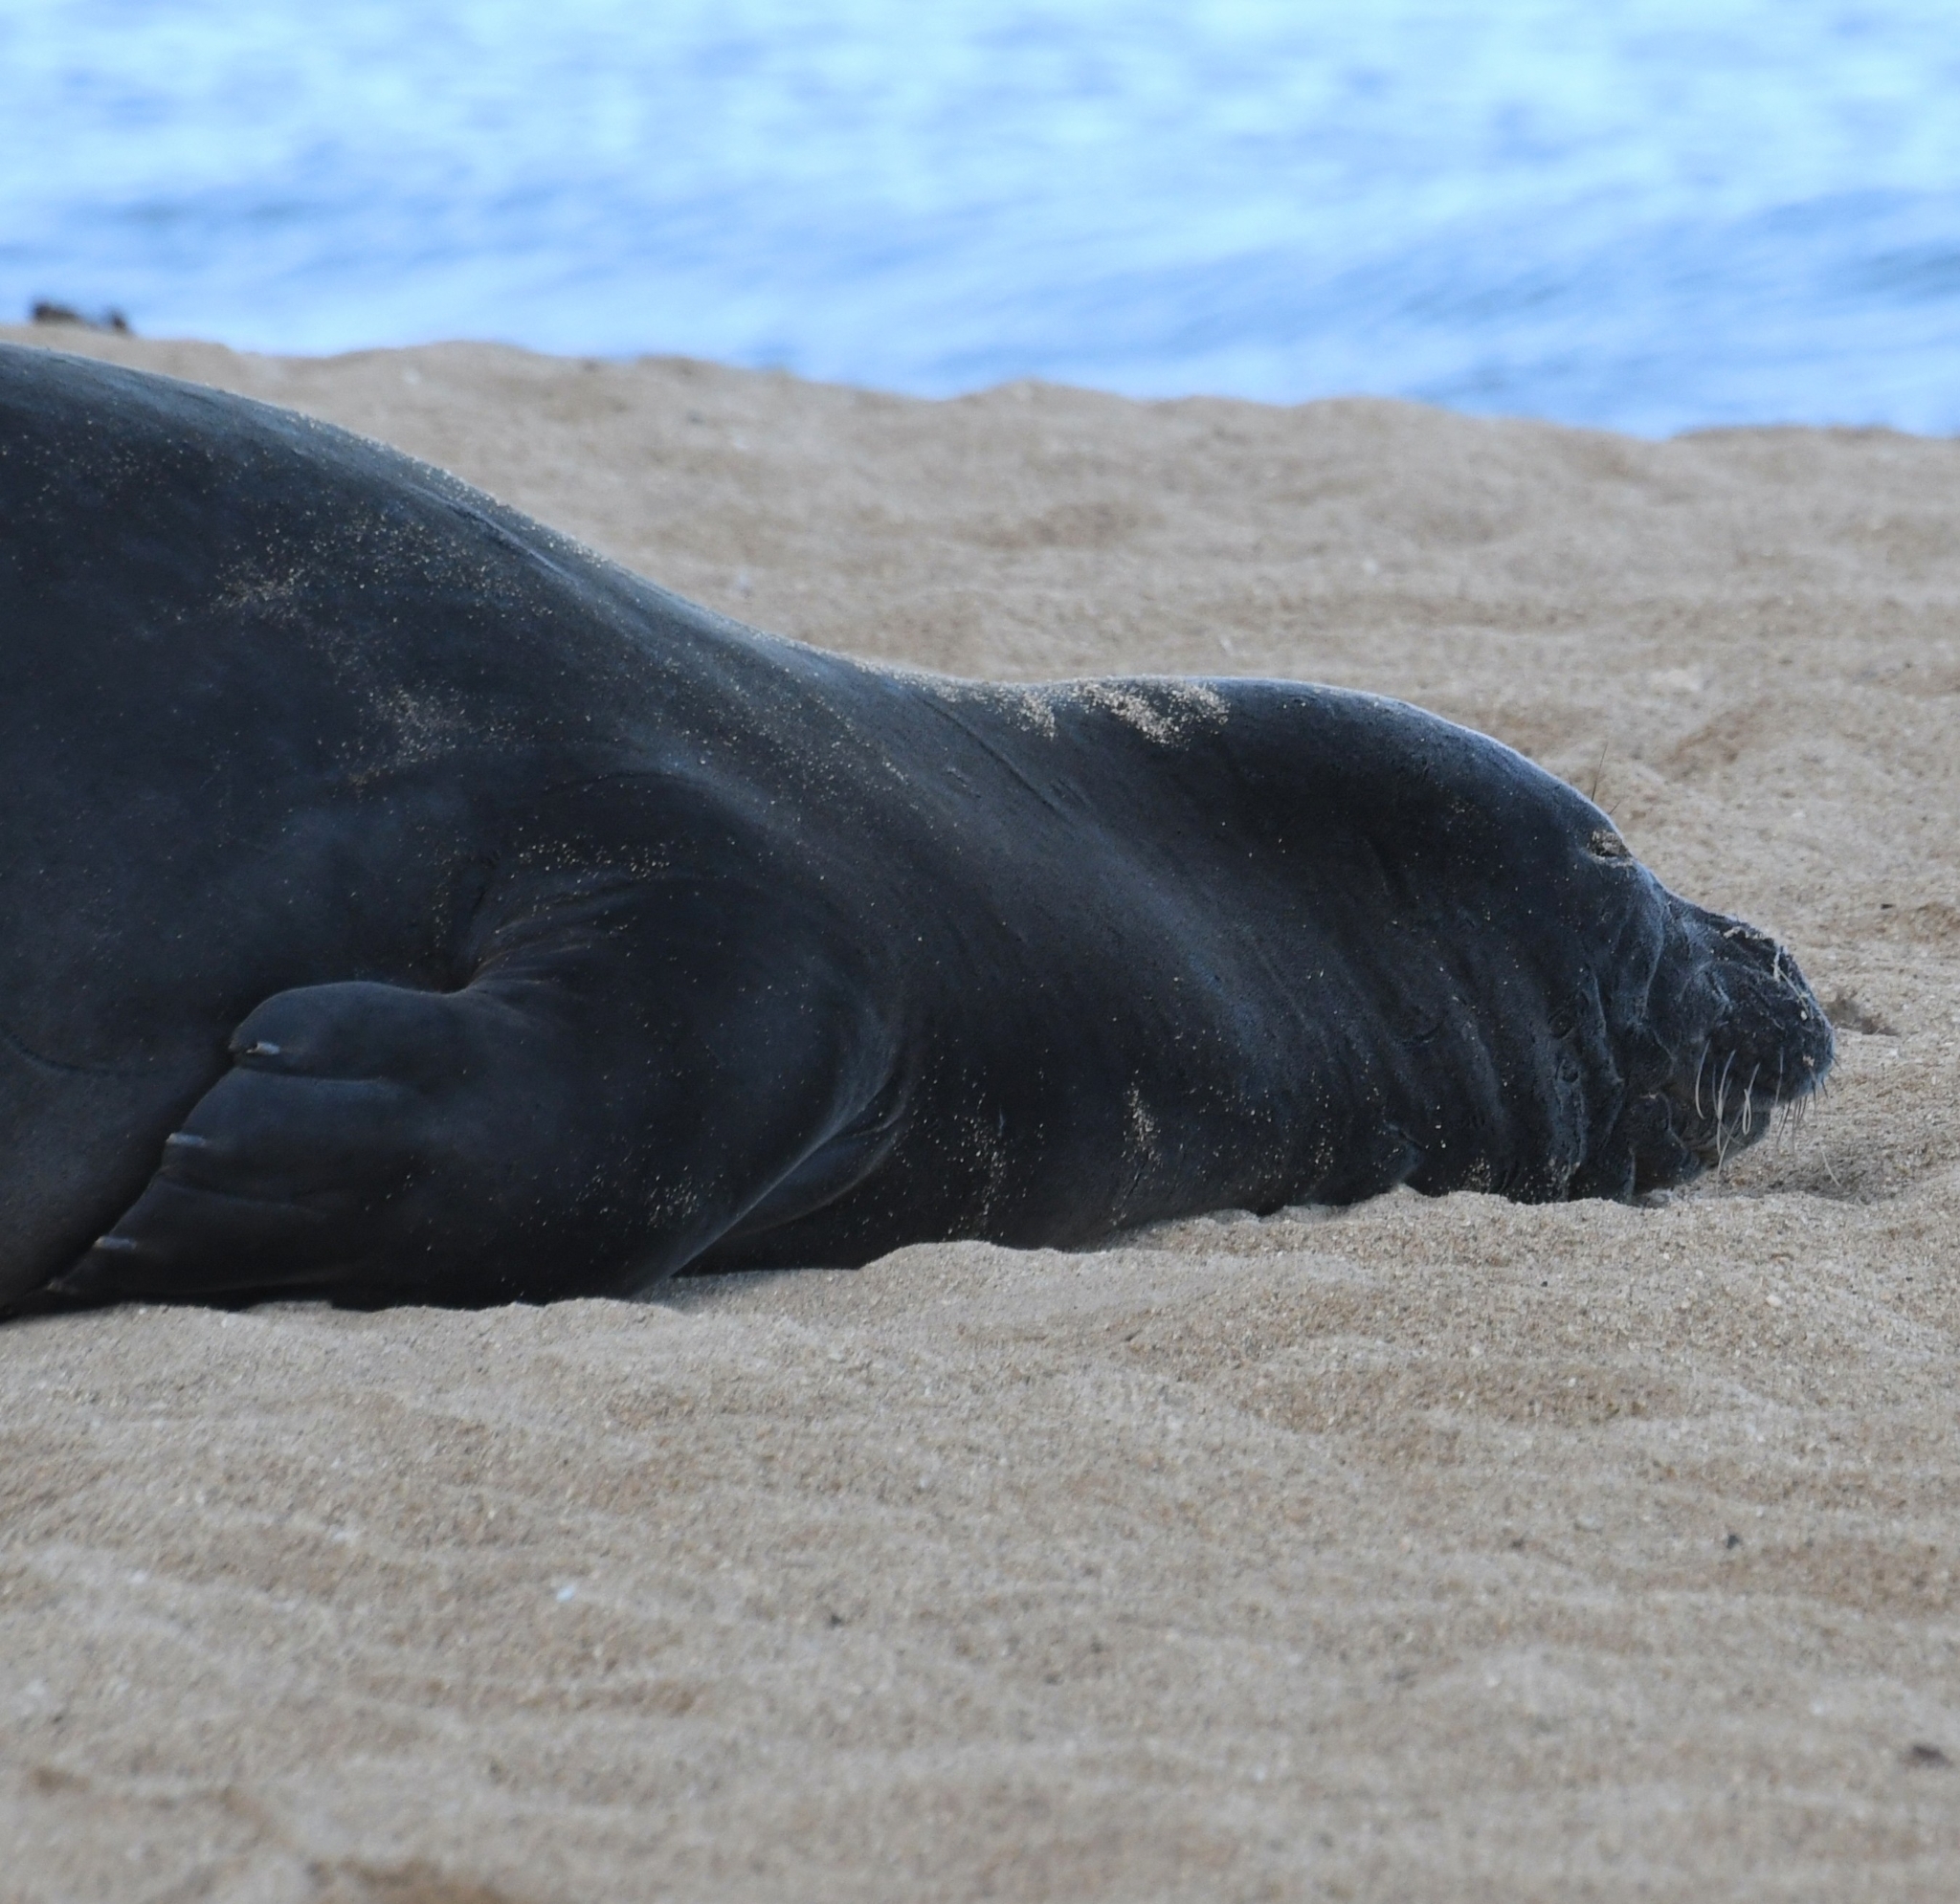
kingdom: Animalia
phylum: Chordata
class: Mammalia
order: Carnivora
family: Phocidae
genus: Neomonachus
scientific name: Neomonachus schauinslandi
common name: Hawaiian monk seal
